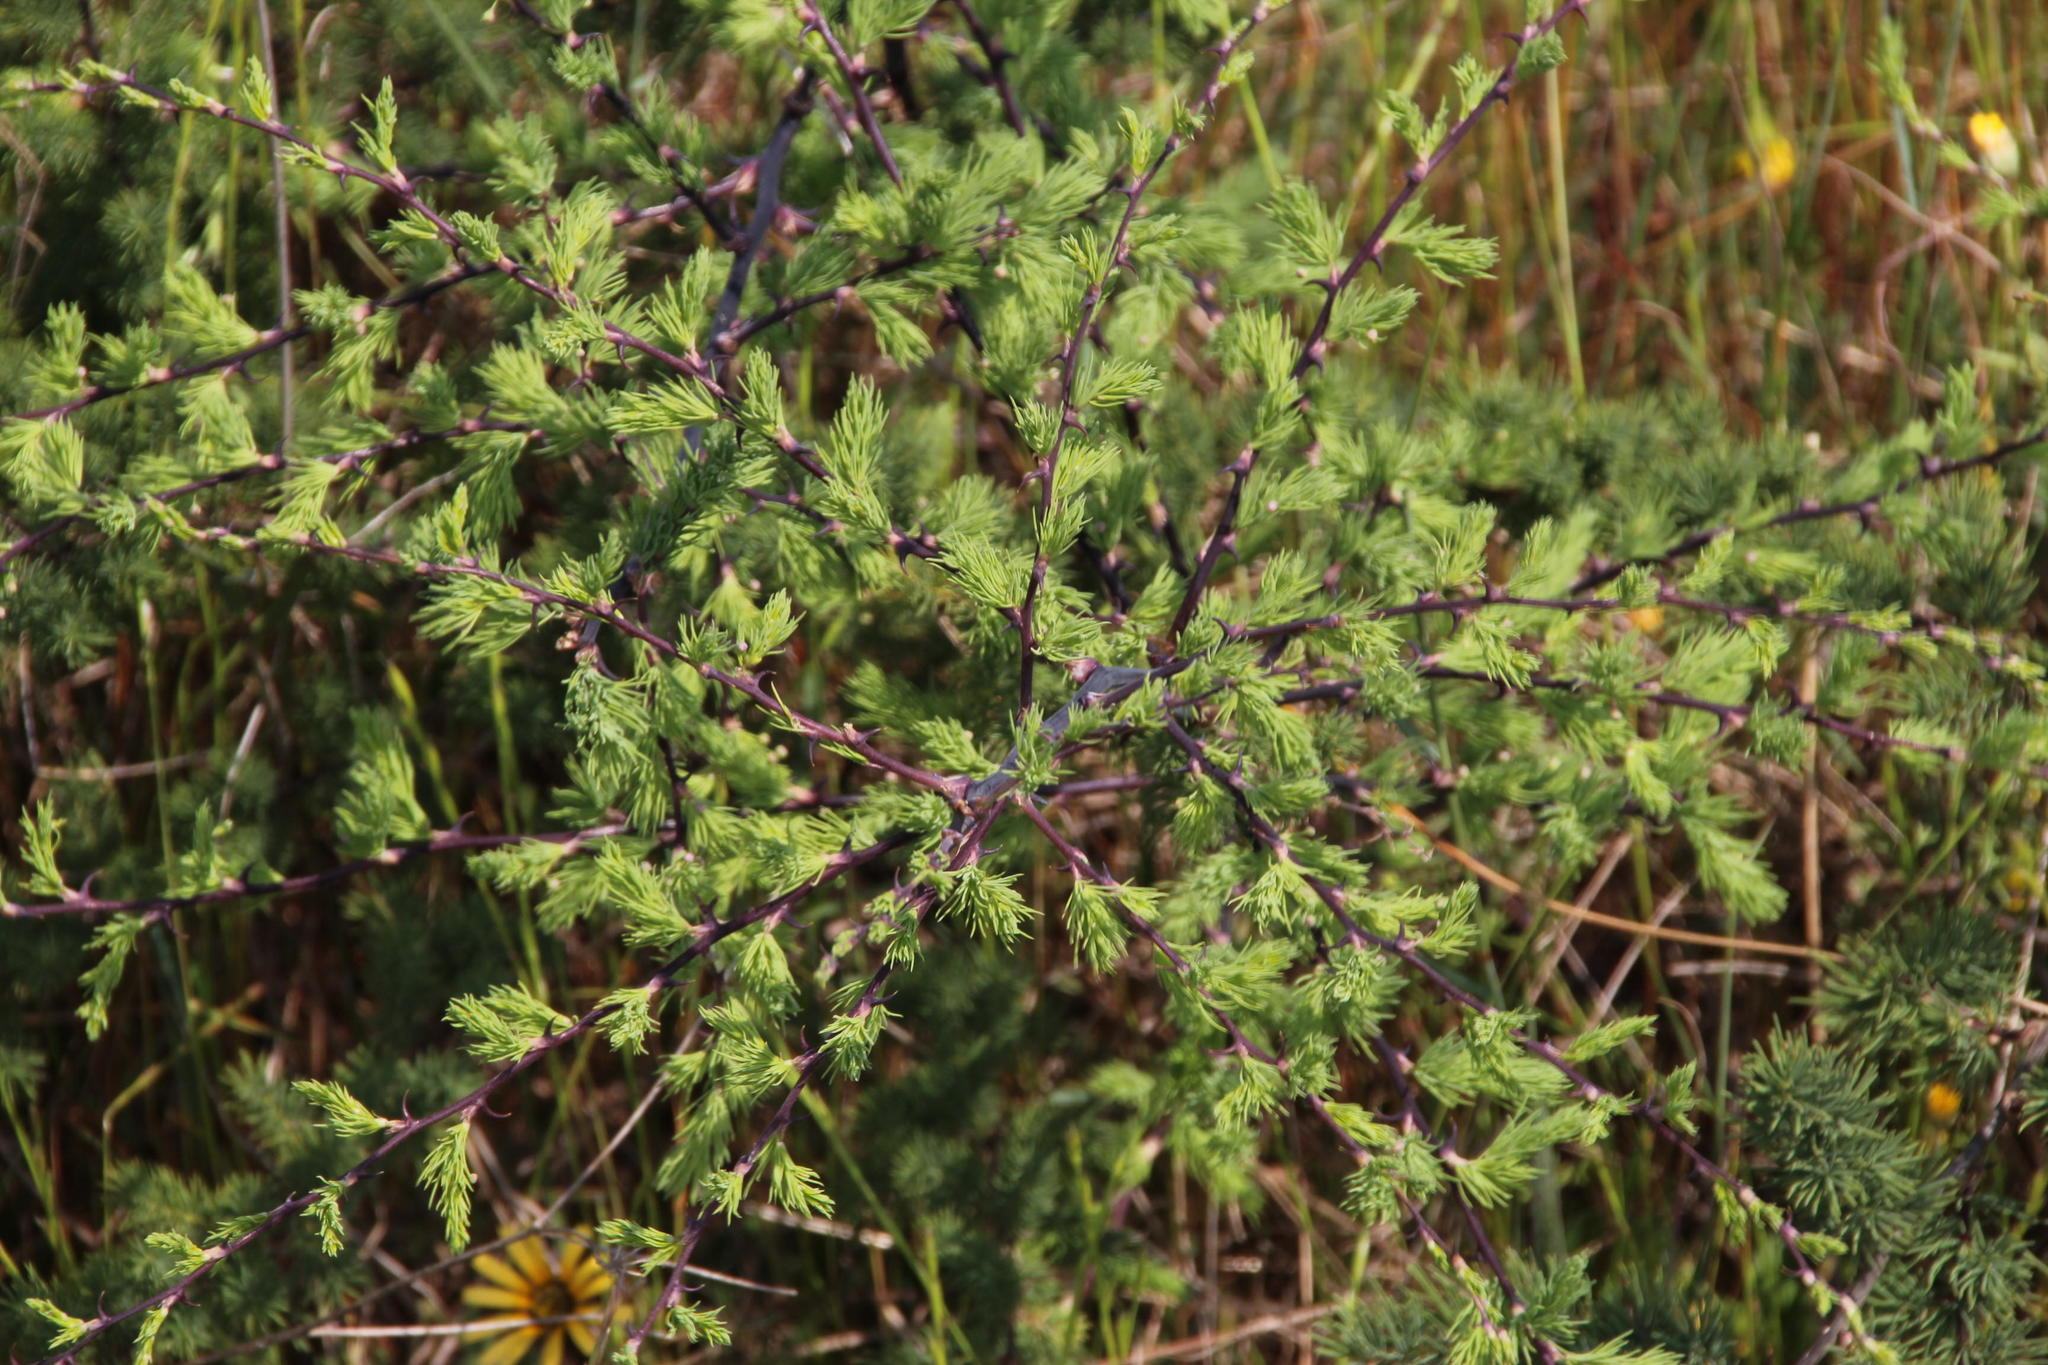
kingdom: Plantae
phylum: Tracheophyta
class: Liliopsida
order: Asparagales
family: Asparagaceae
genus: Asparagus
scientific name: Asparagus rubicundus
